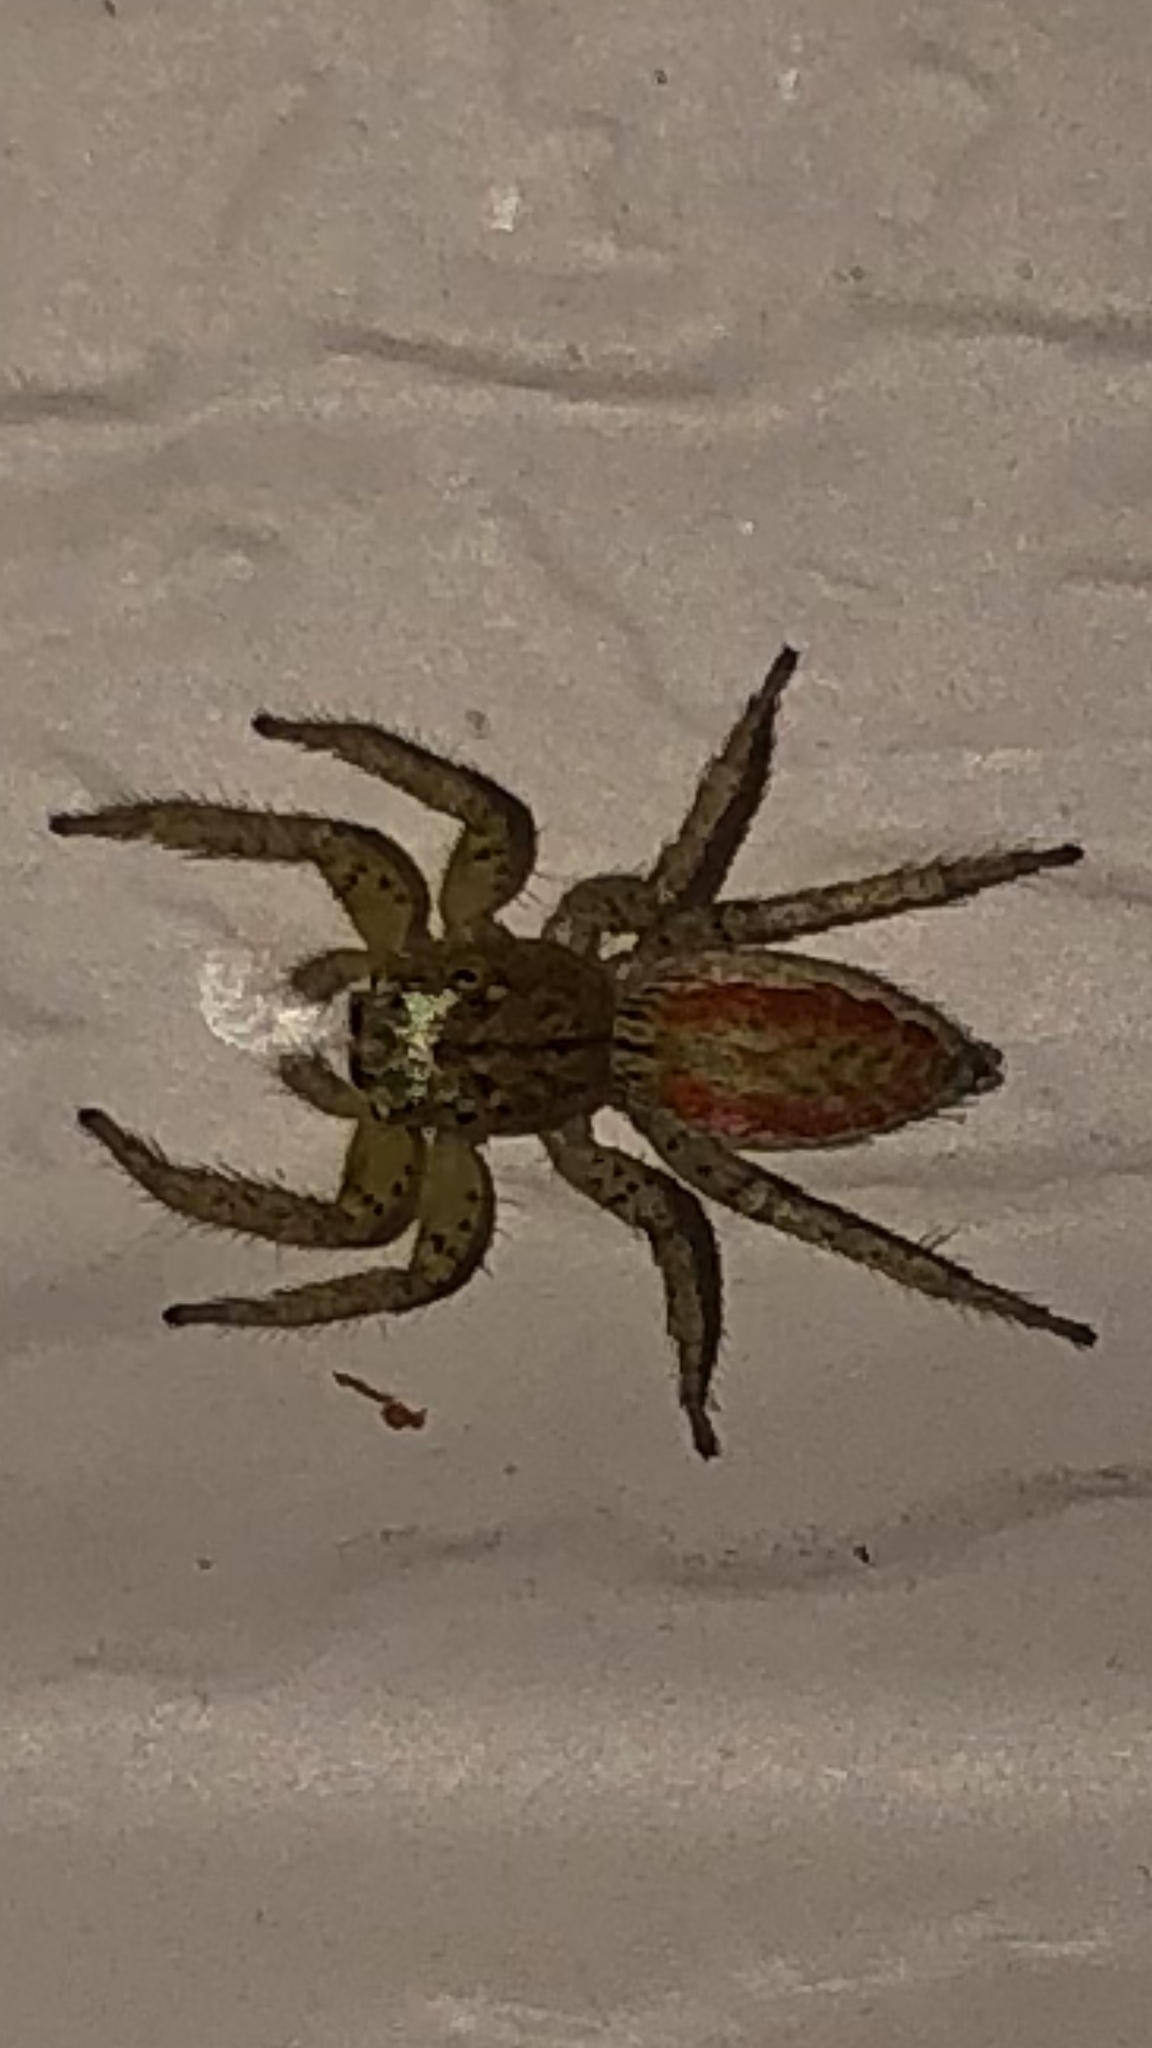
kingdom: Animalia
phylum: Arthropoda
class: Arachnida
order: Araneae
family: Salticidae
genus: Maevia
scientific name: Maevia inclemens
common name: Dimorphic jumper
